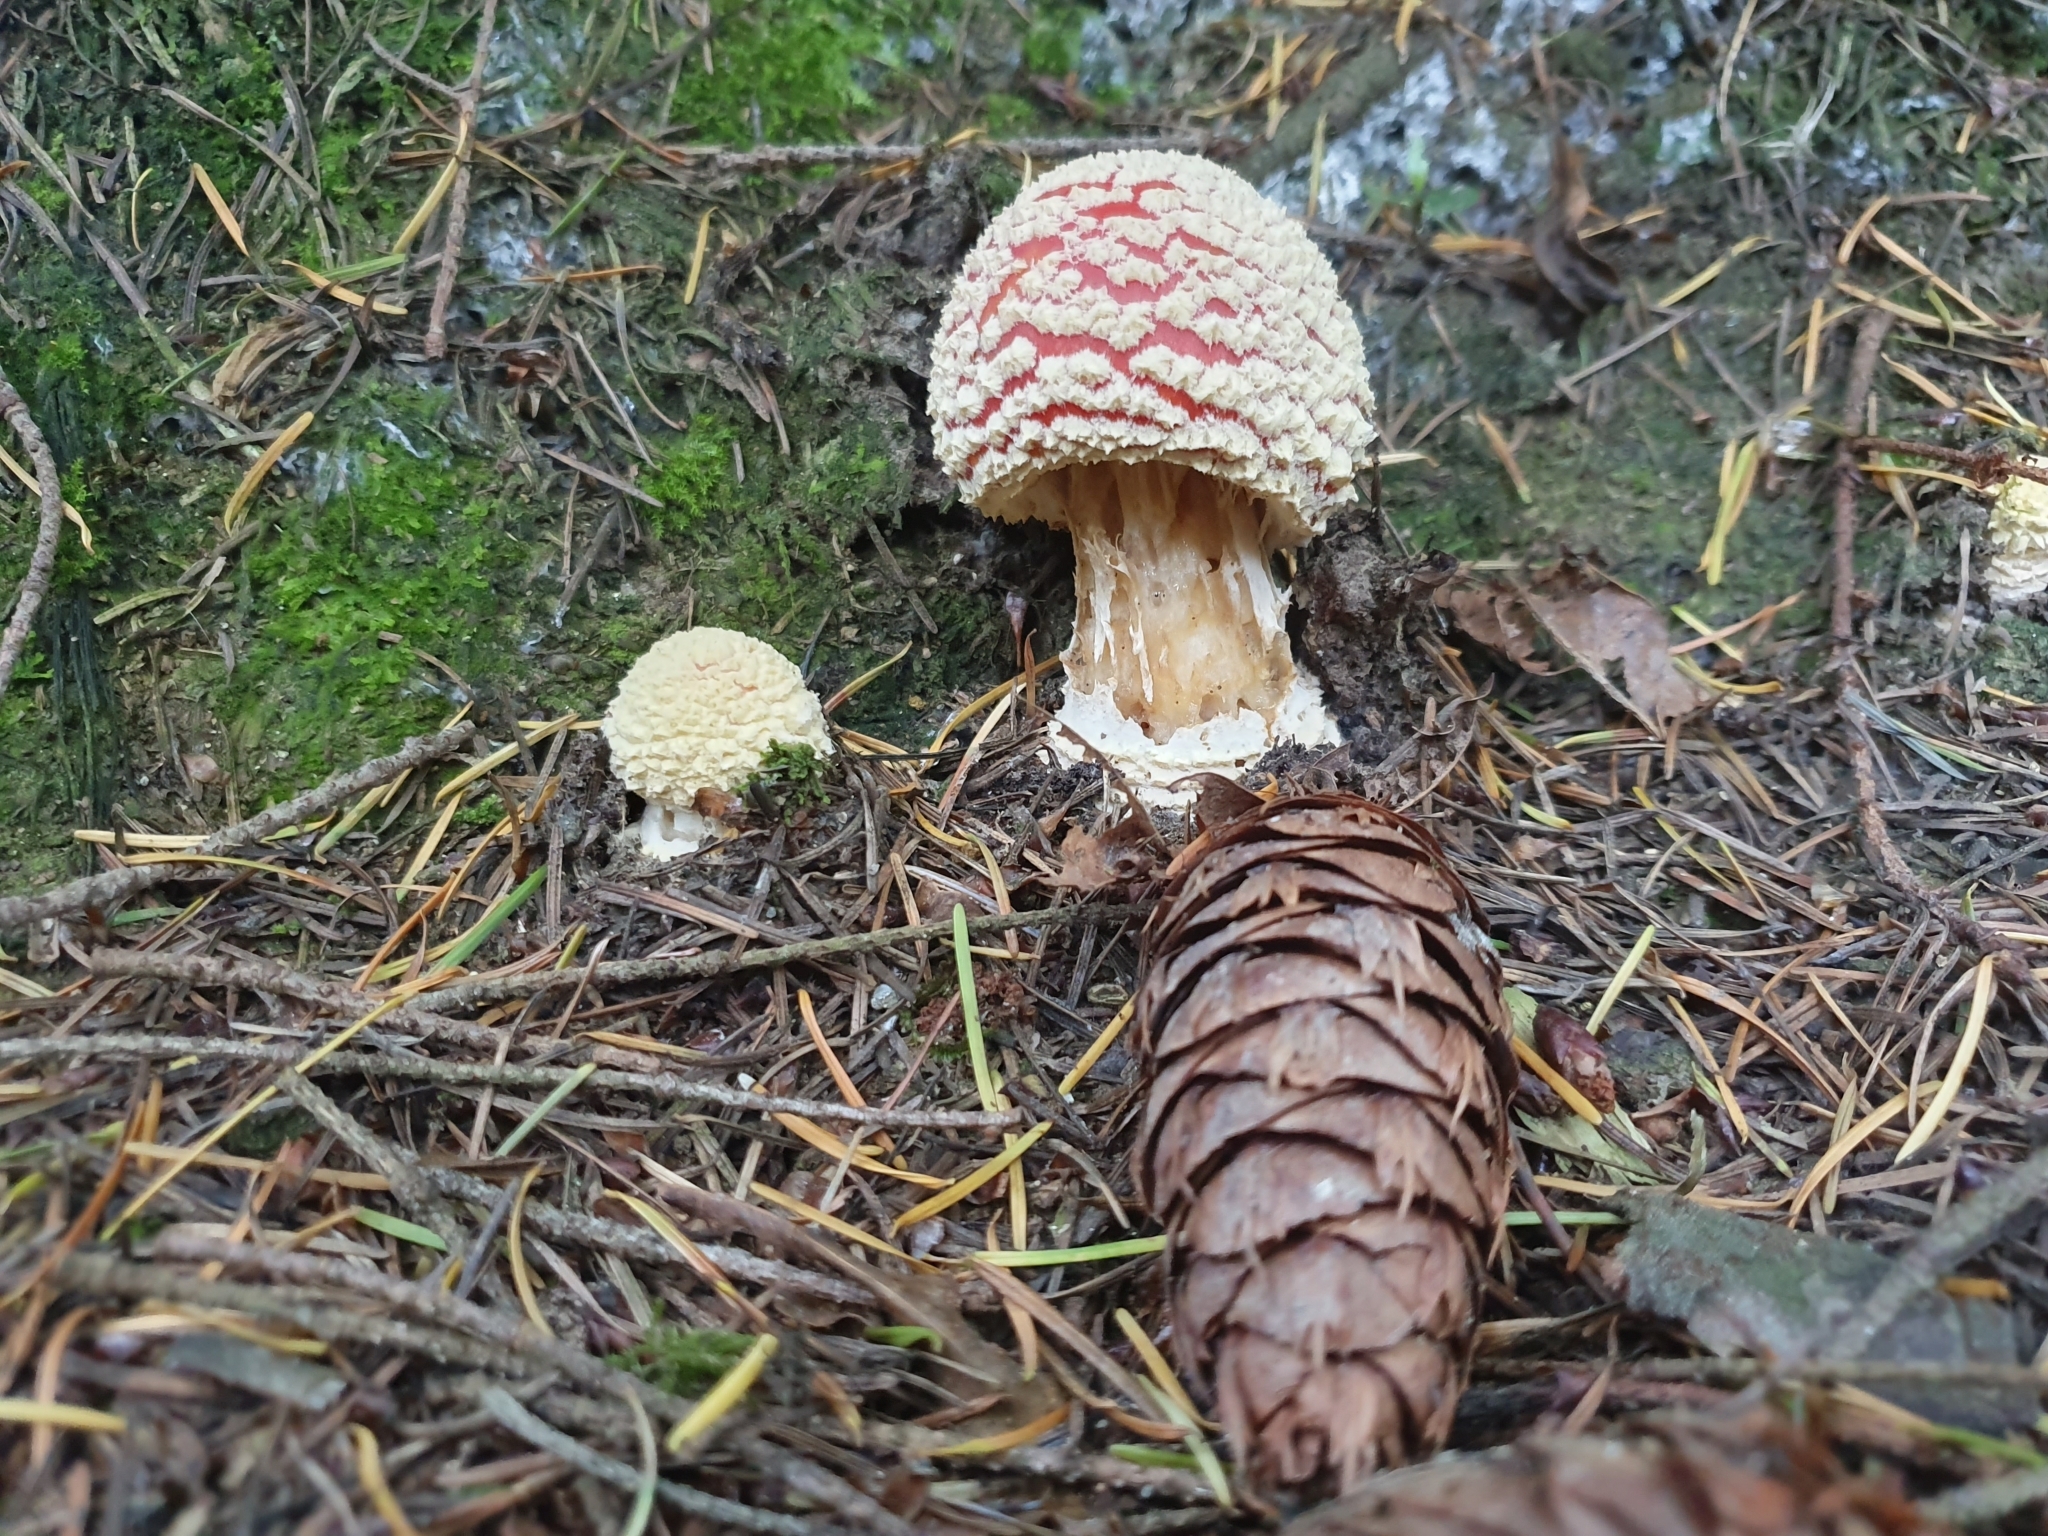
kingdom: Fungi
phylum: Basidiomycota
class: Agaricomycetes
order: Agaricales
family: Amanitaceae
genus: Amanita
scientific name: Amanita muscaria
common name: Fly agaric
